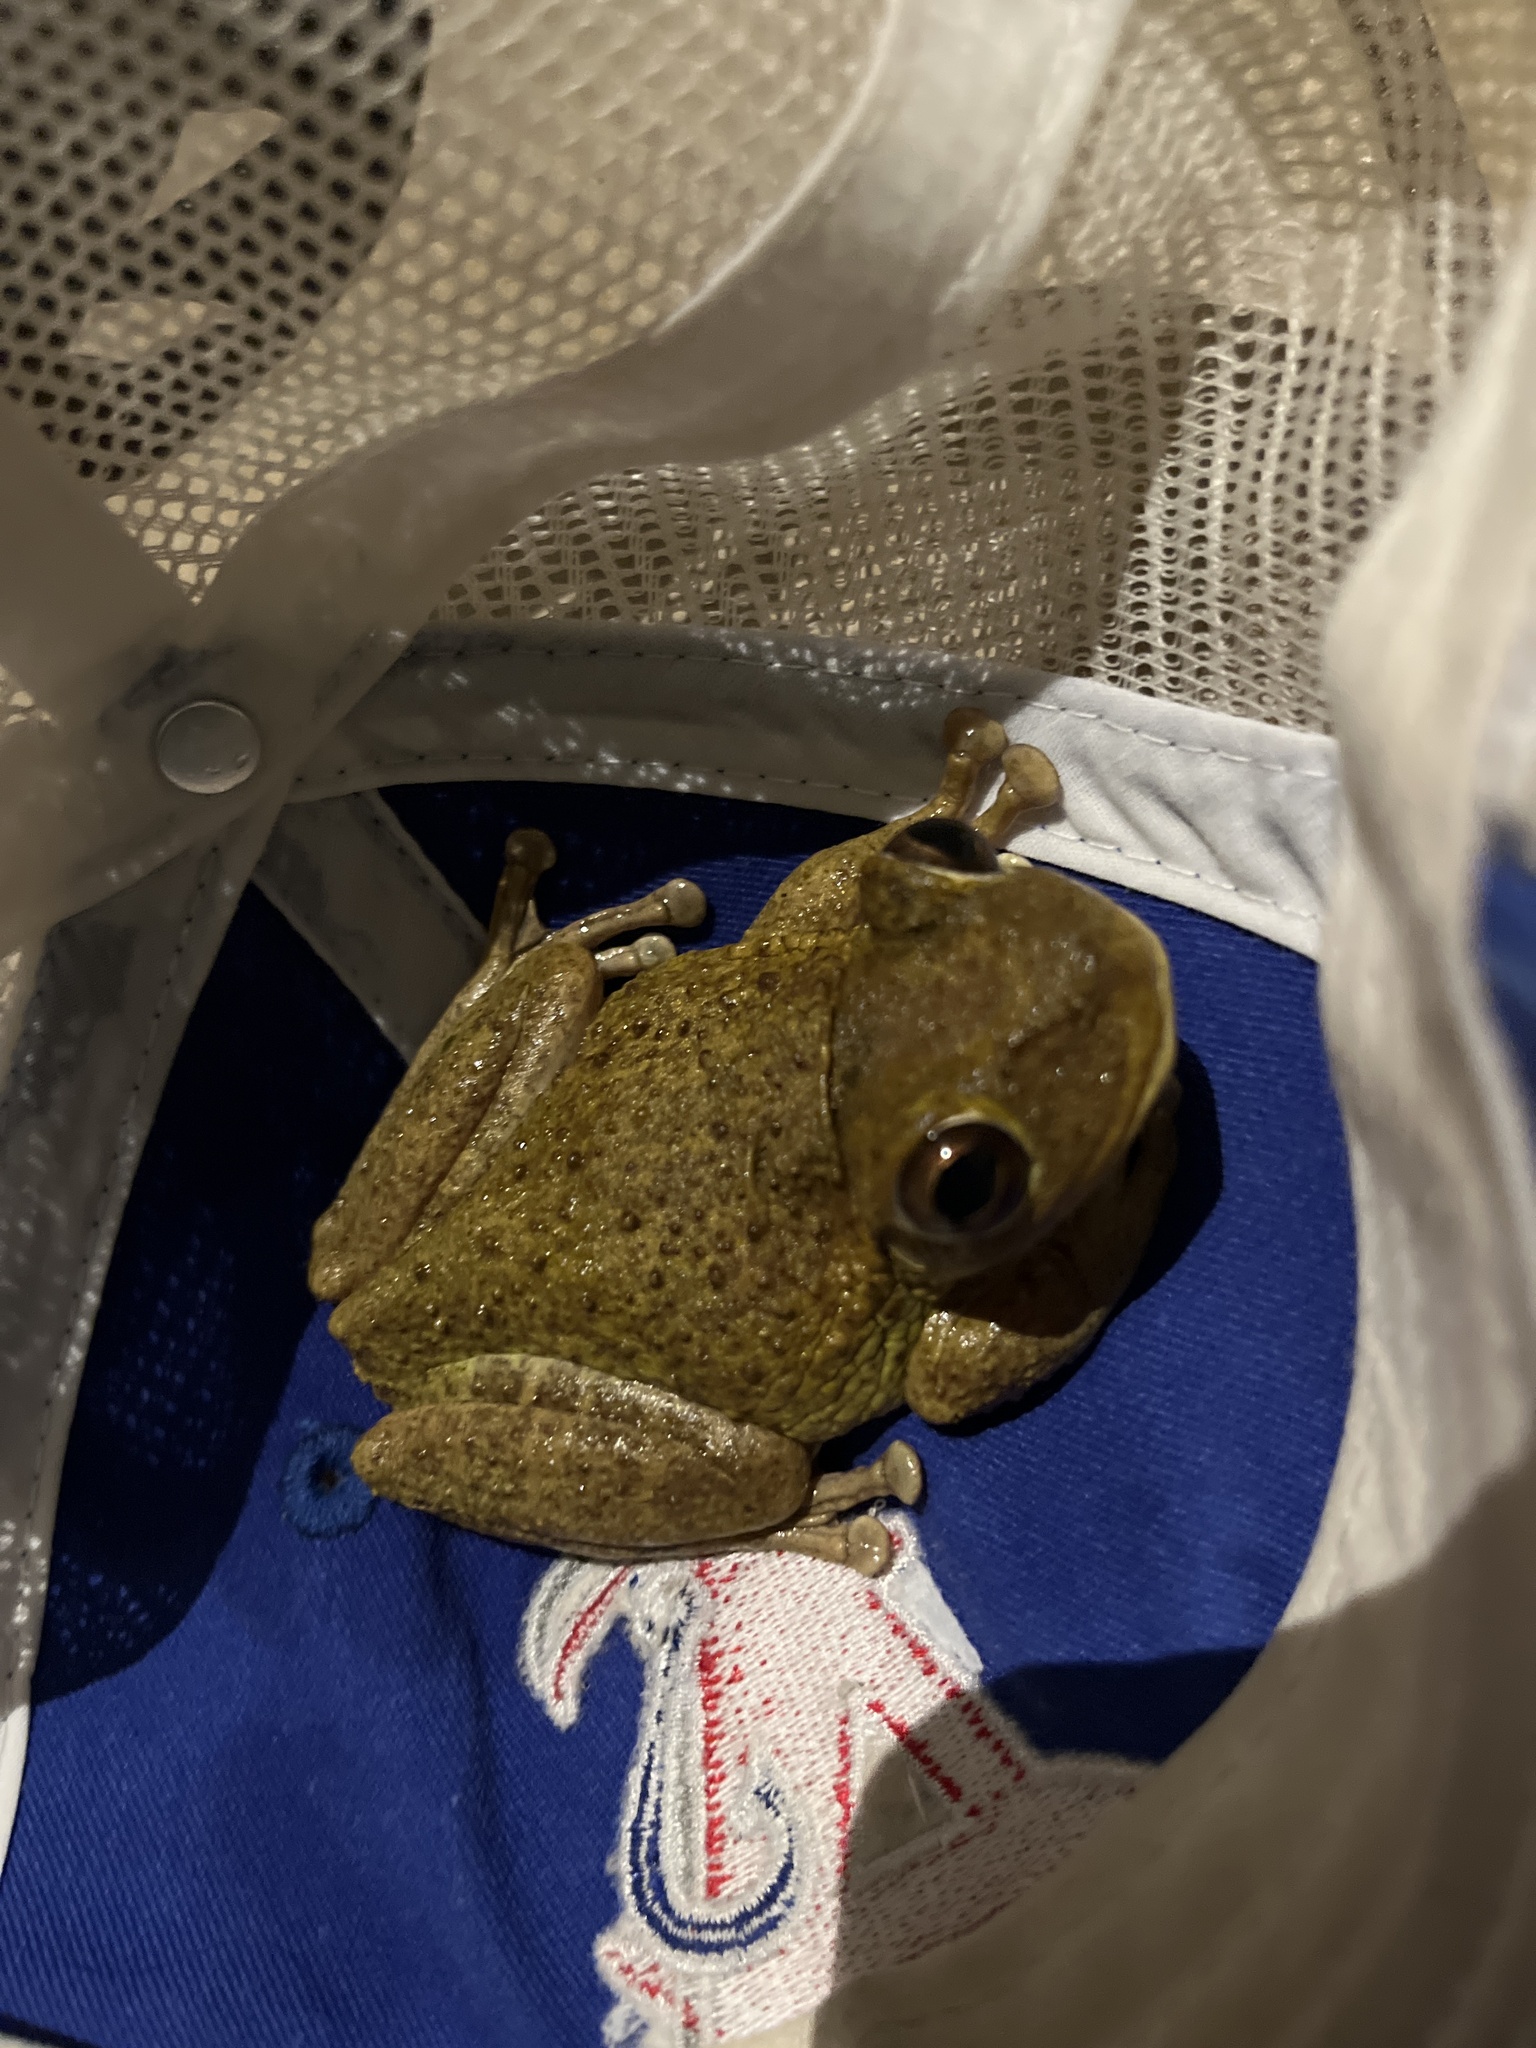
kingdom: Animalia
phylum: Chordata
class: Amphibia
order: Anura
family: Hylidae
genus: Osteopilus
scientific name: Osteopilus septentrionalis
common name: Cuban treefrog
